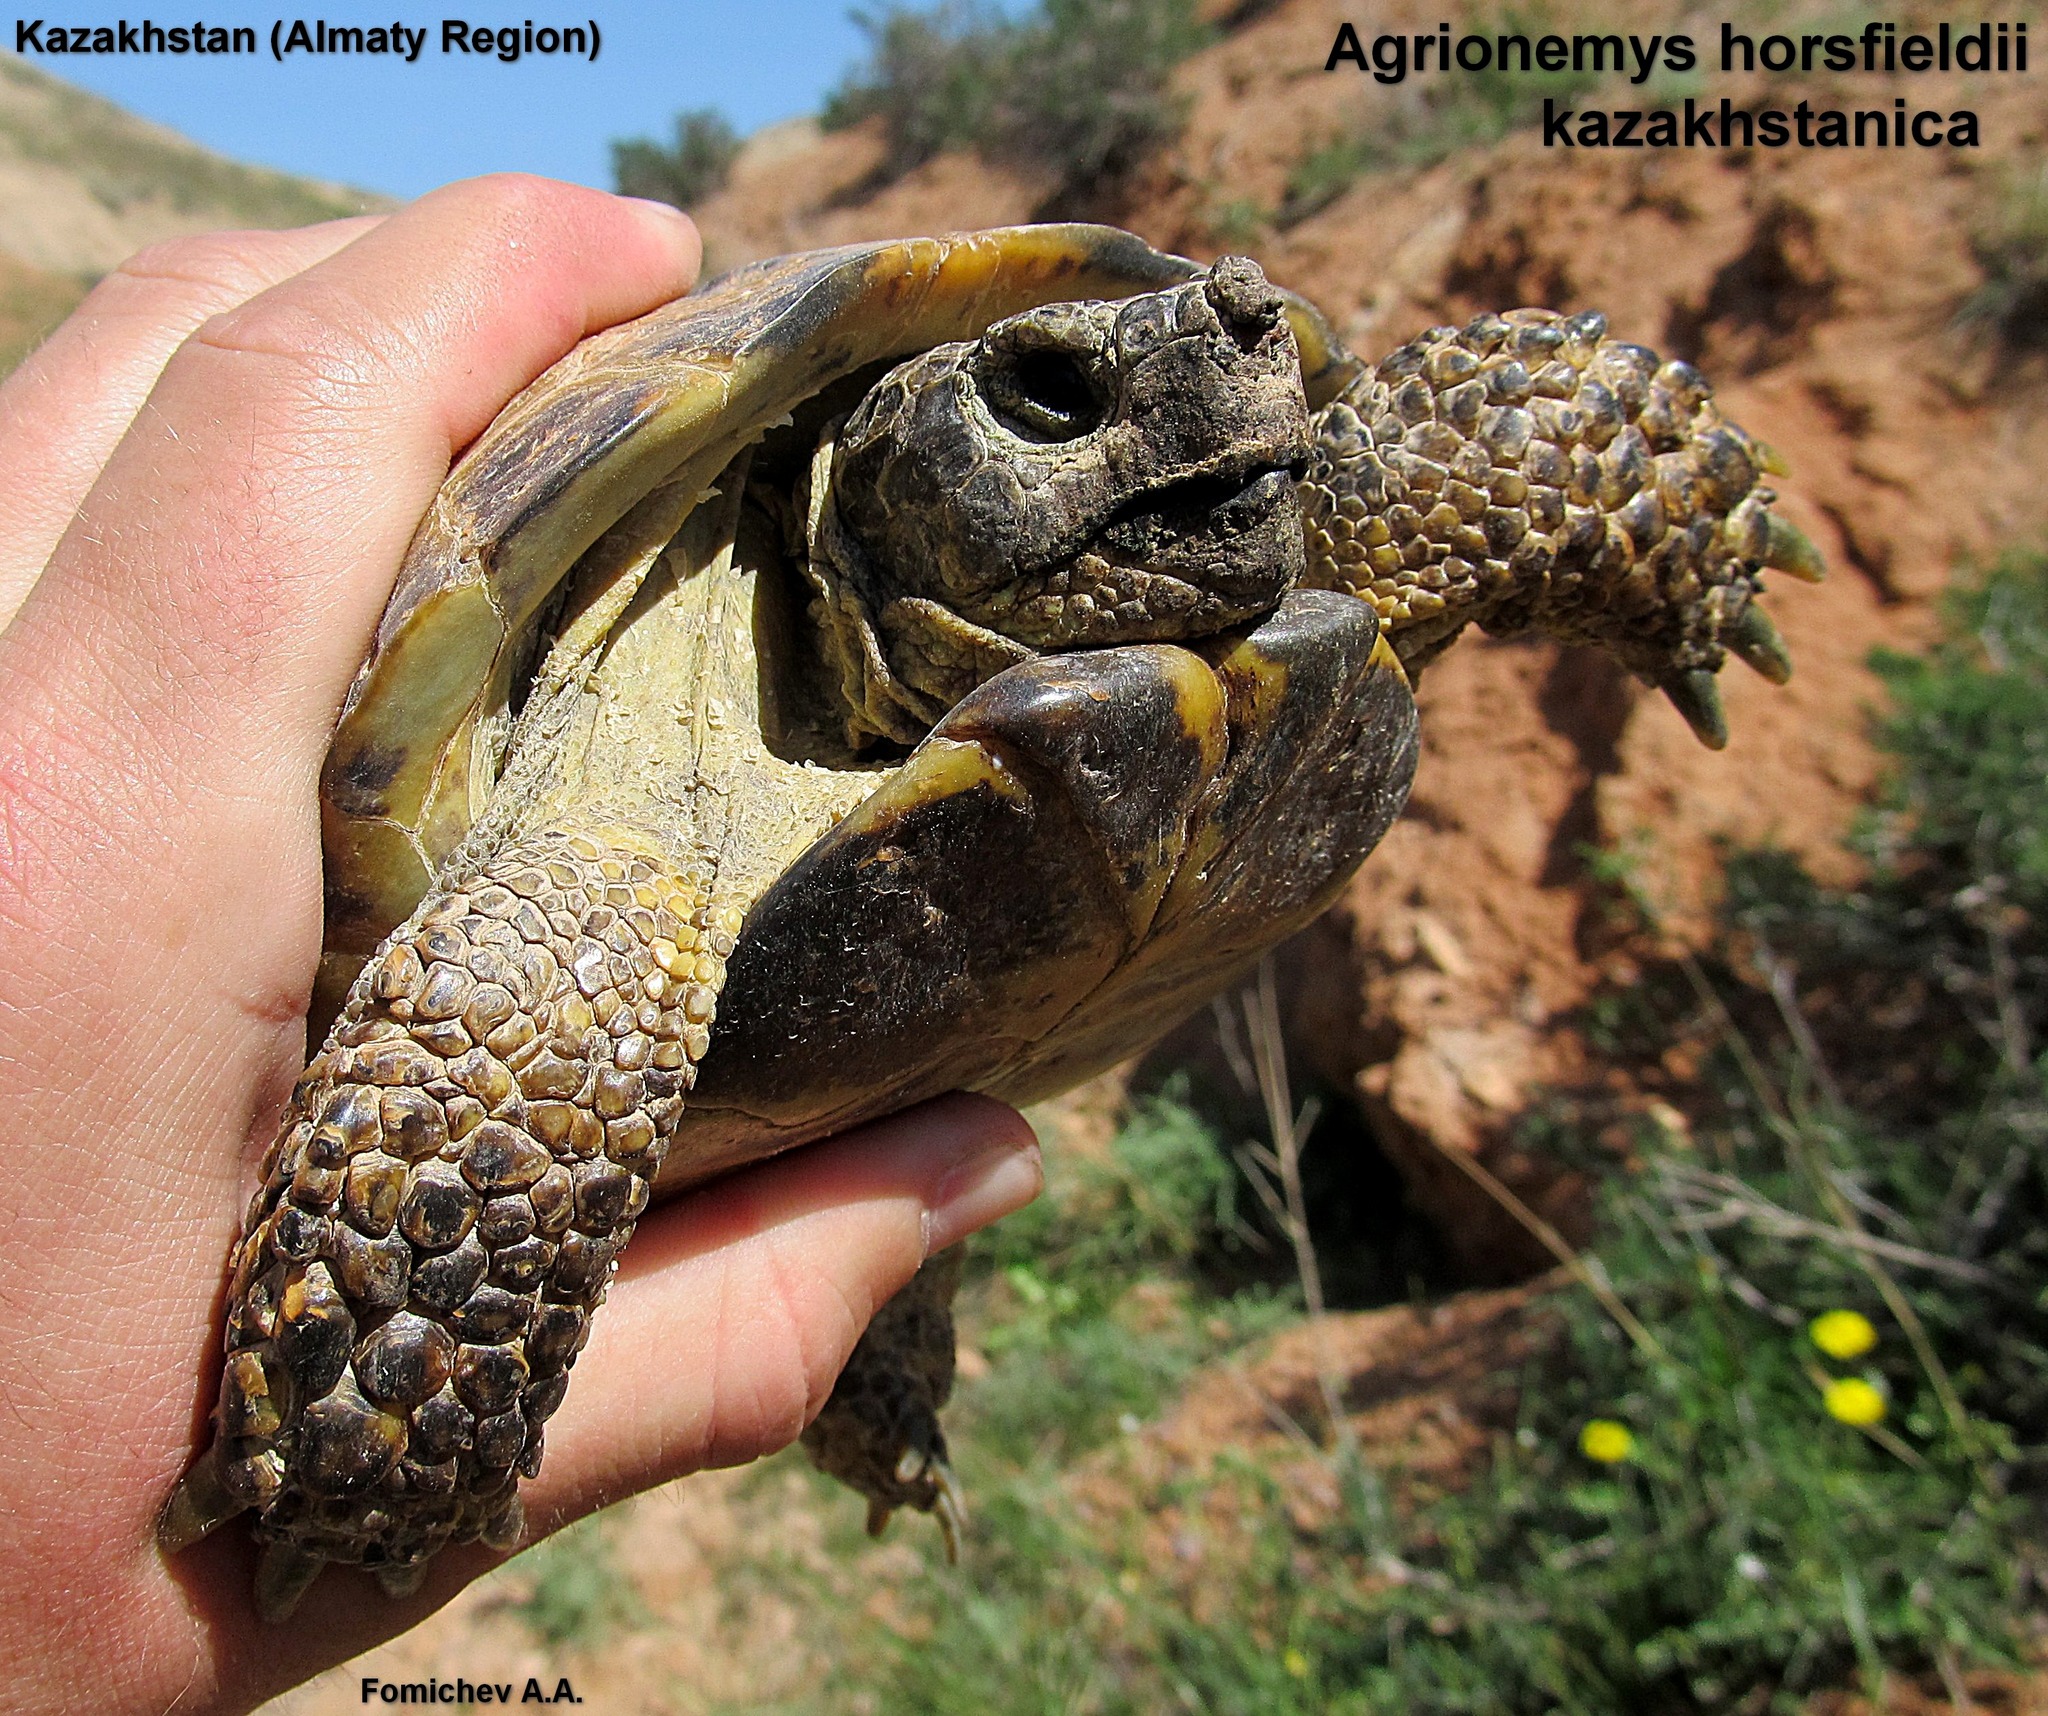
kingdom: Animalia
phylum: Chordata
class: Testudines
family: Testudinidae
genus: Testudo
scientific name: Testudo horsfieldii
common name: Central asia tortoise
